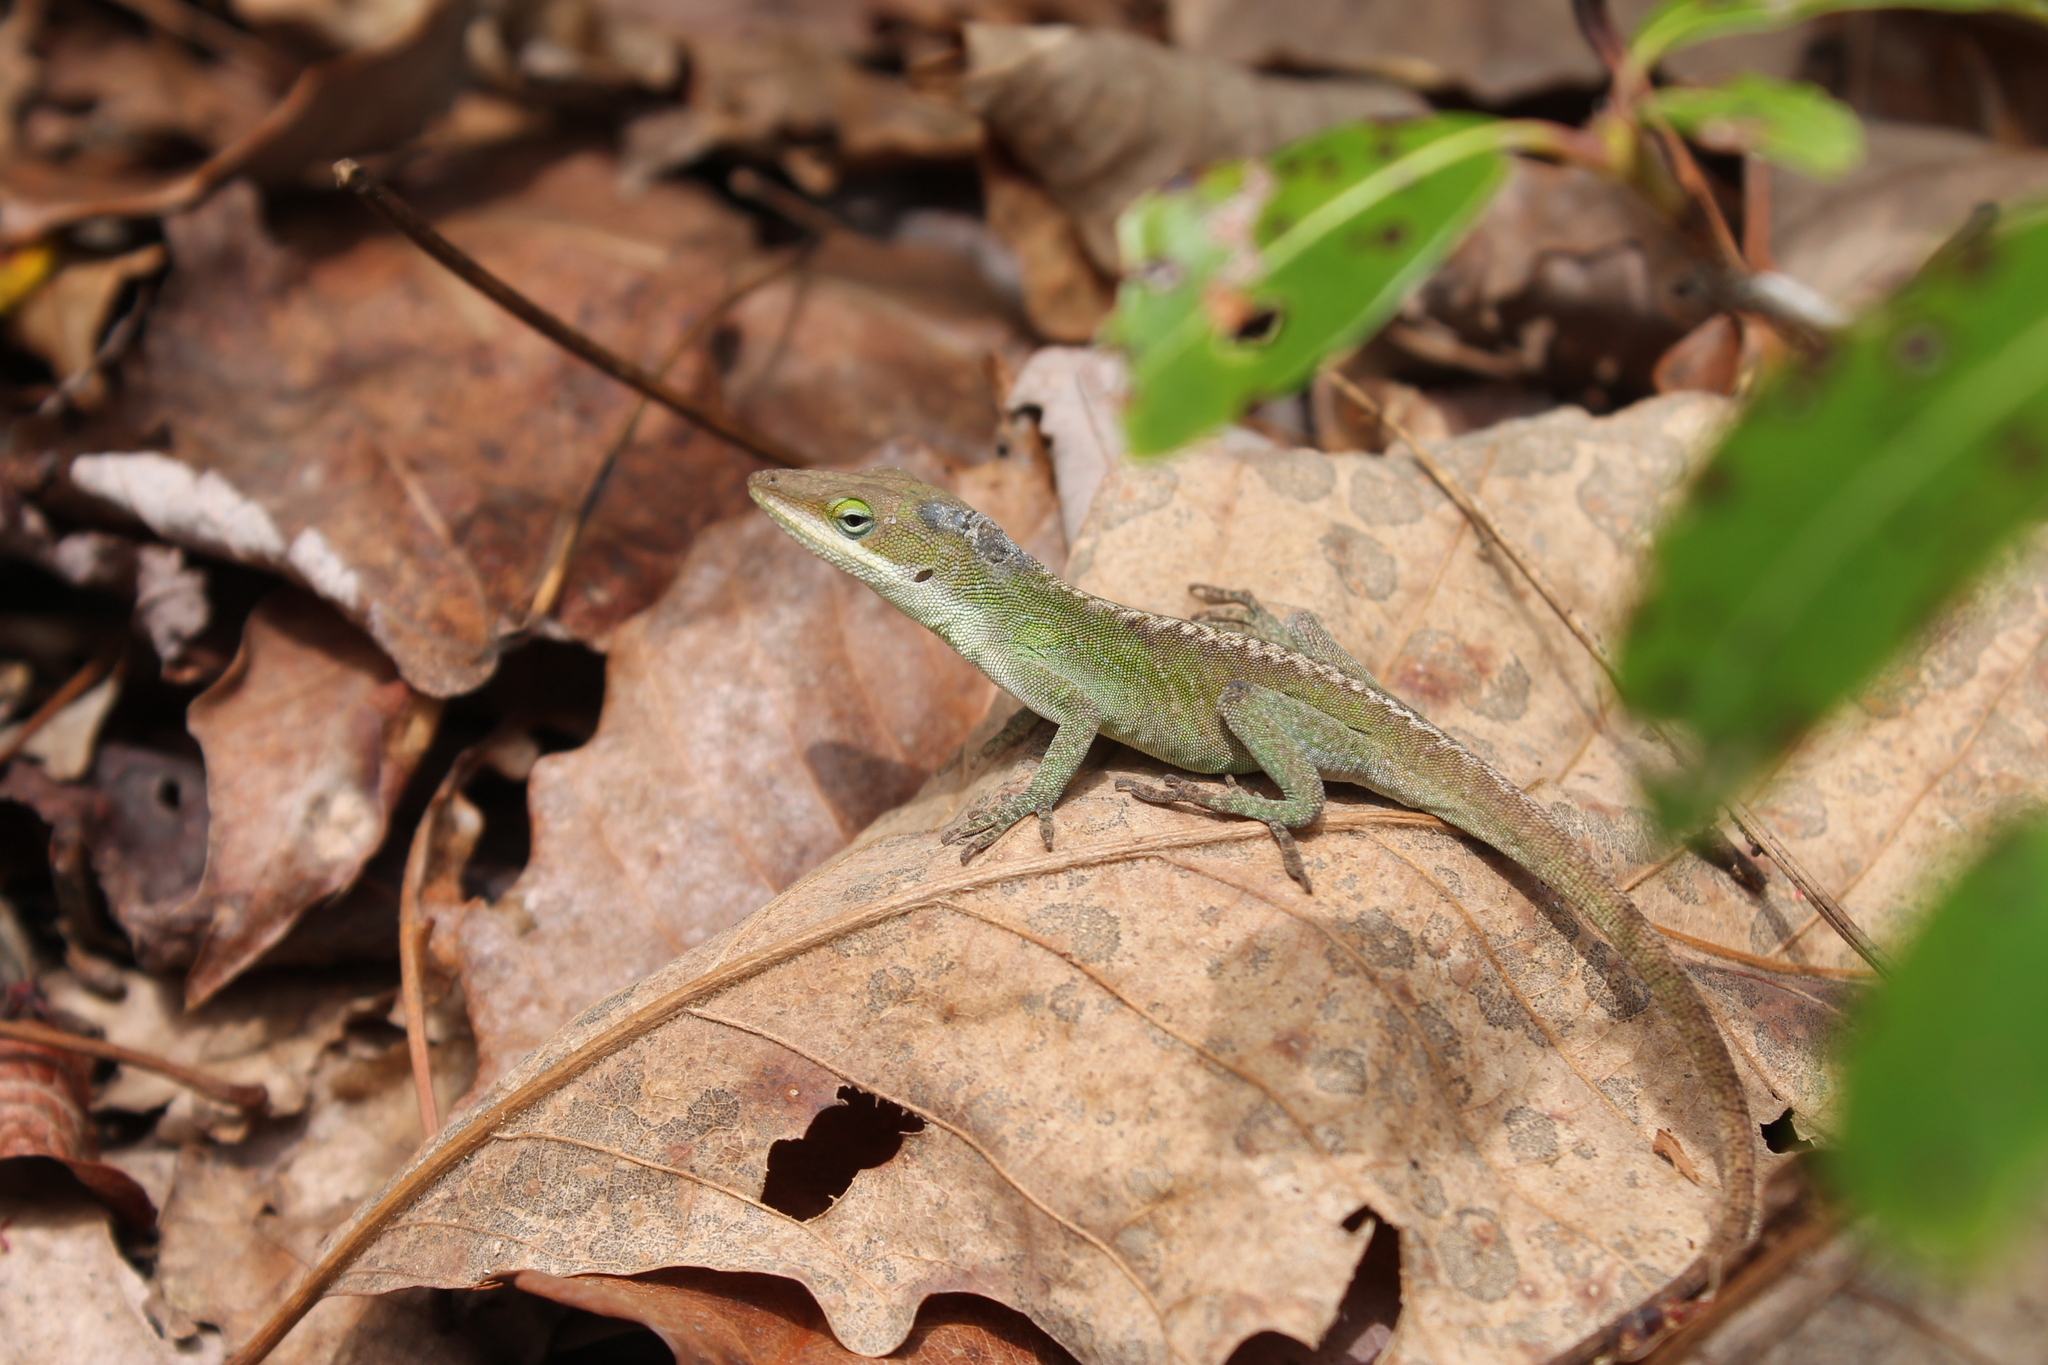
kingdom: Animalia
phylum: Chordata
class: Squamata
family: Dactyloidae
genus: Anolis
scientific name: Anolis carolinensis
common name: Green anole
